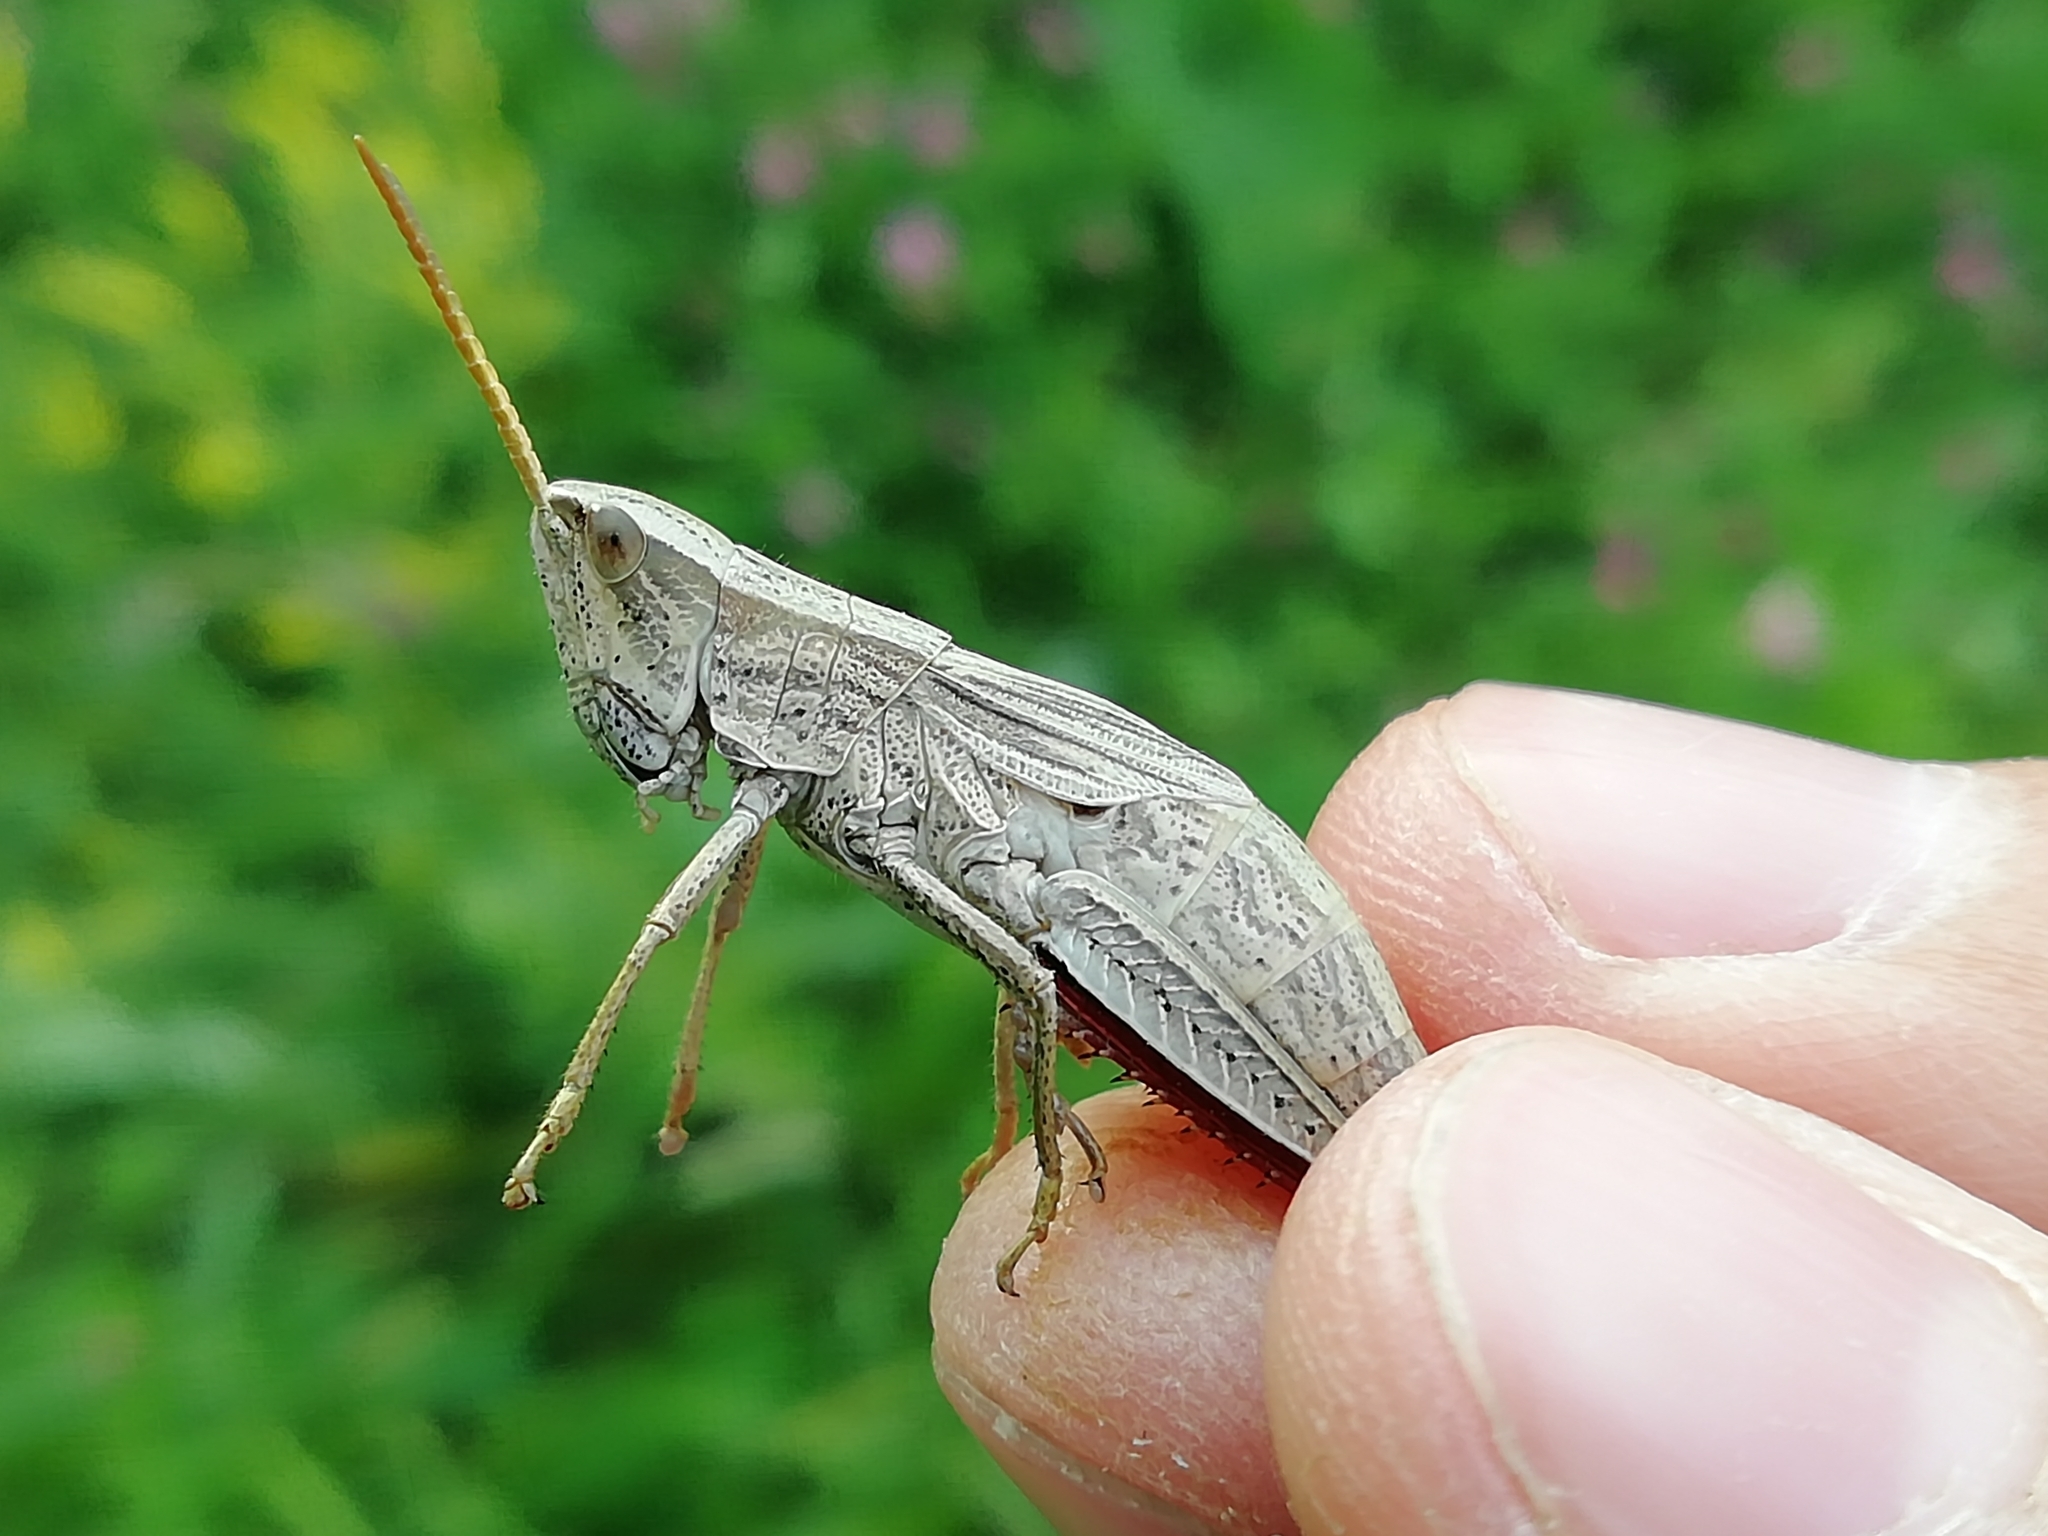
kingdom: Animalia
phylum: Arthropoda
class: Insecta
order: Orthoptera
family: Acrididae
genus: Chrysochraon
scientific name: Chrysochraon dispar
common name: Large gold grasshopper
